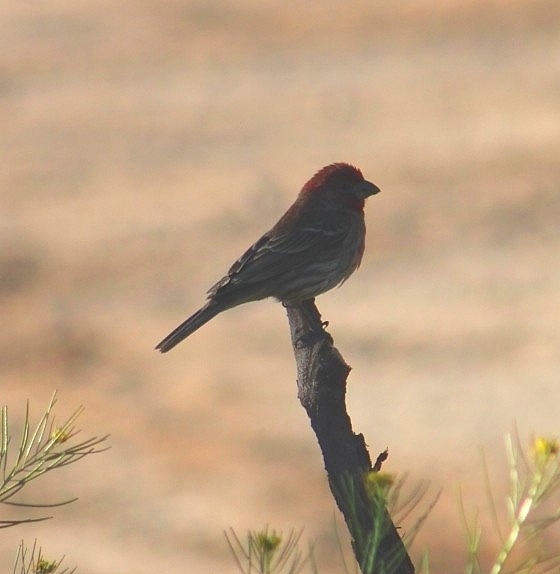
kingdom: Animalia
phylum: Chordata
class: Aves
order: Passeriformes
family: Fringillidae
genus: Haemorhous
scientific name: Haemorhous mexicanus
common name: House finch
